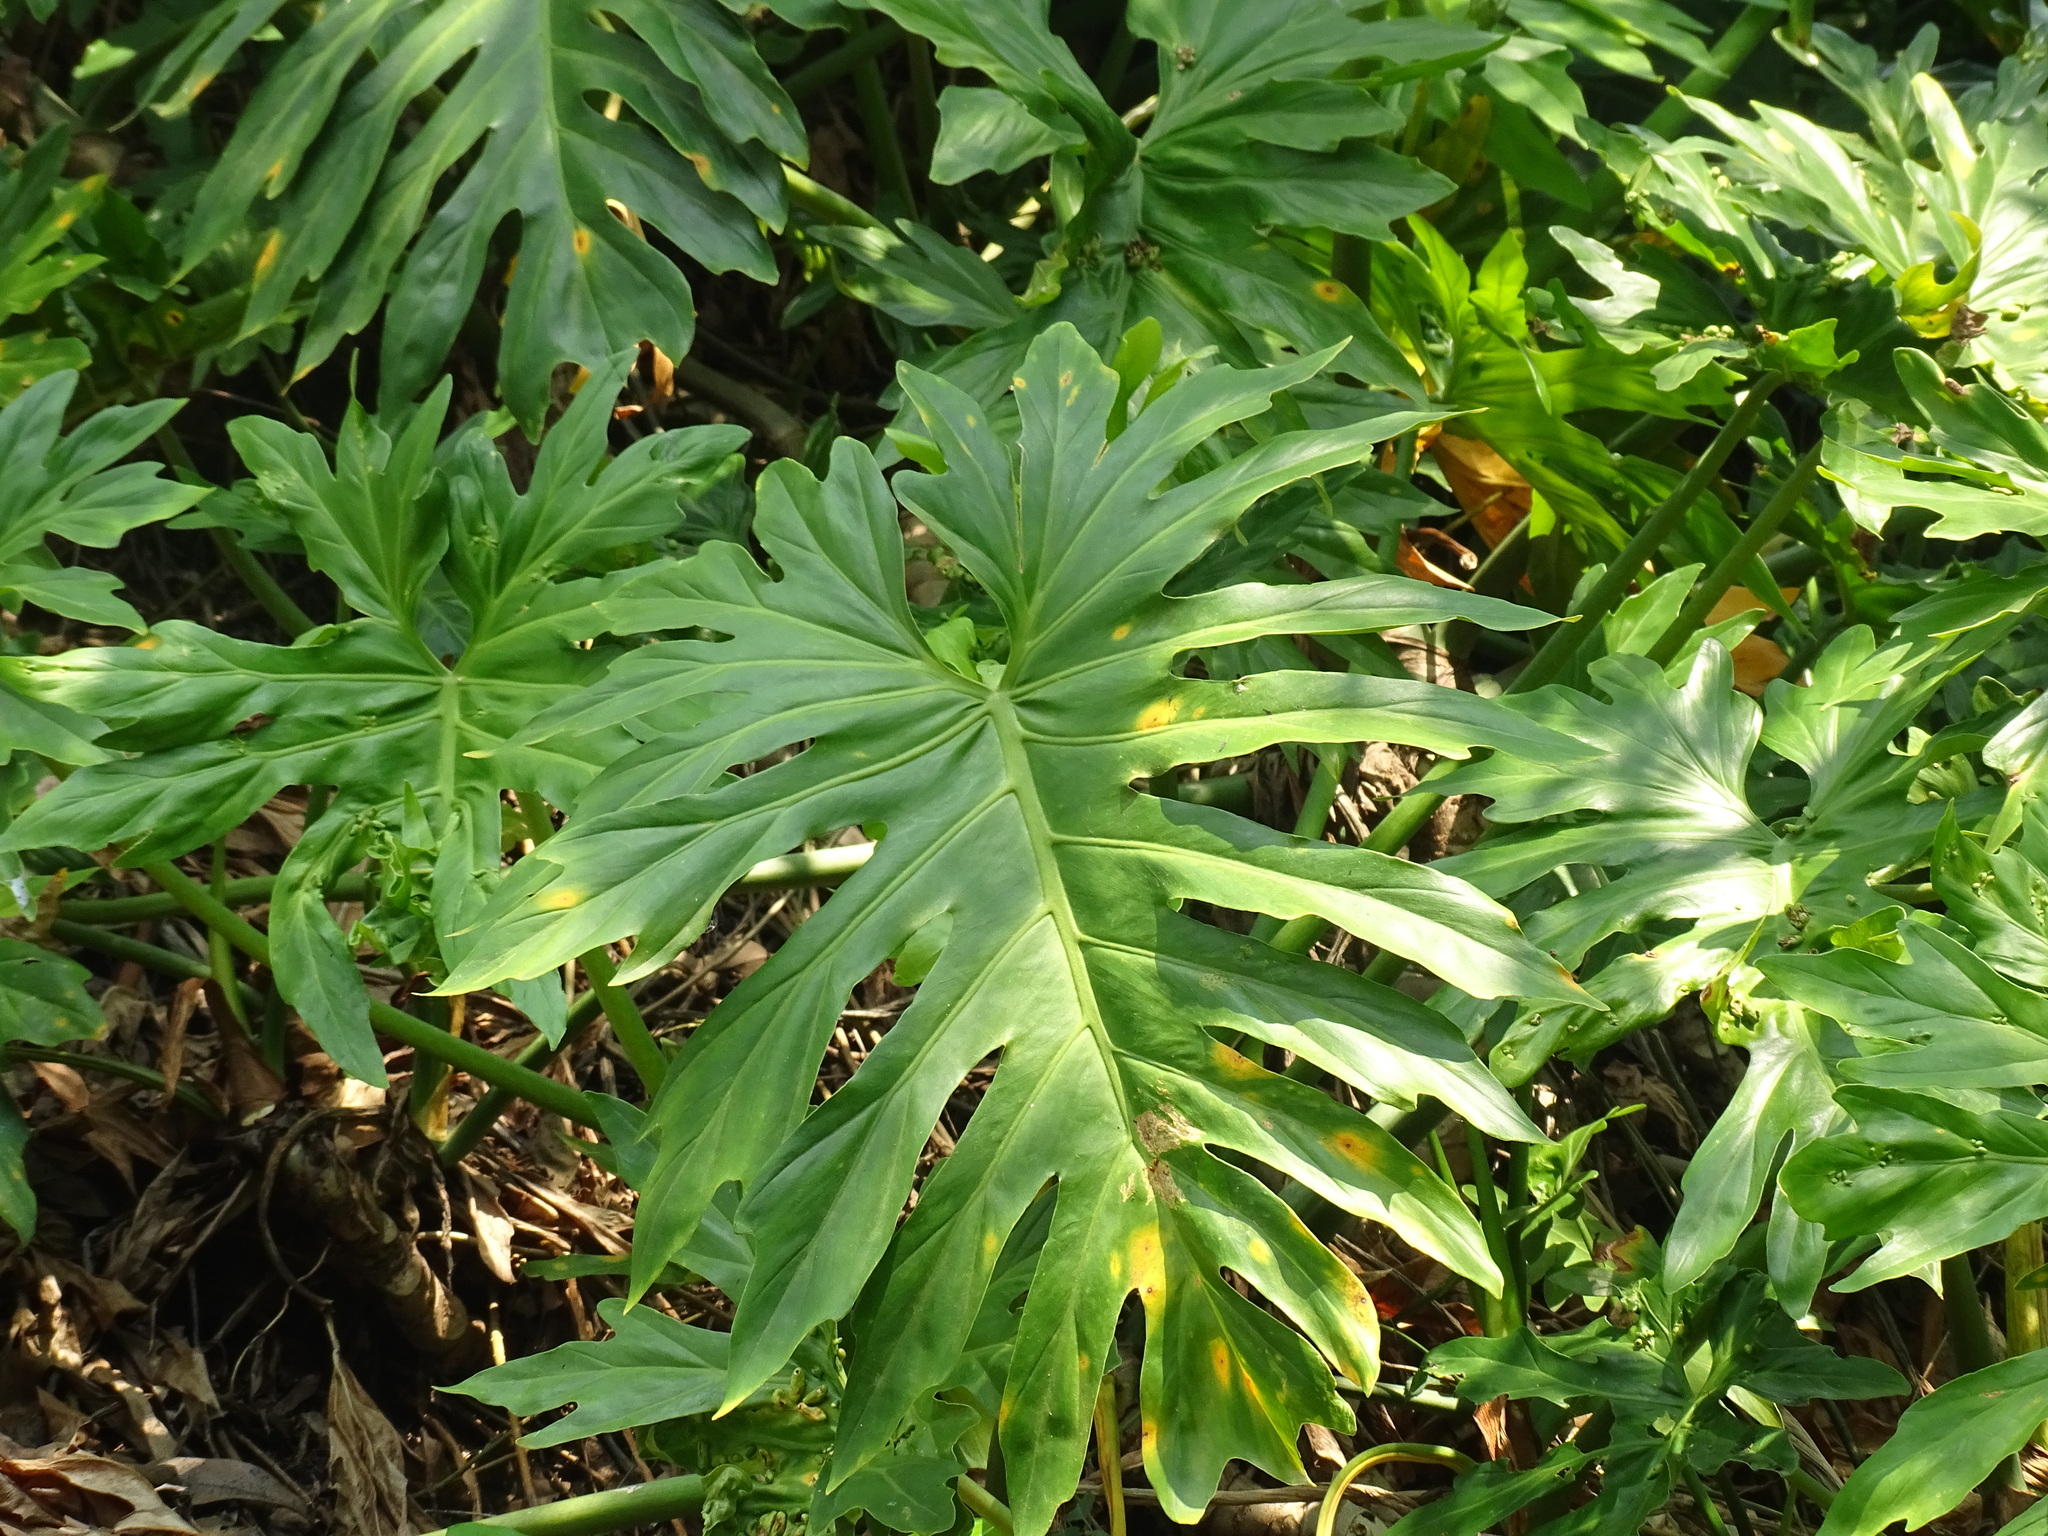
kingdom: Plantae
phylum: Tracheophyta
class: Liliopsida
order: Alismatales
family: Araceae
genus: Philodendron
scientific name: Philodendron radiatum
